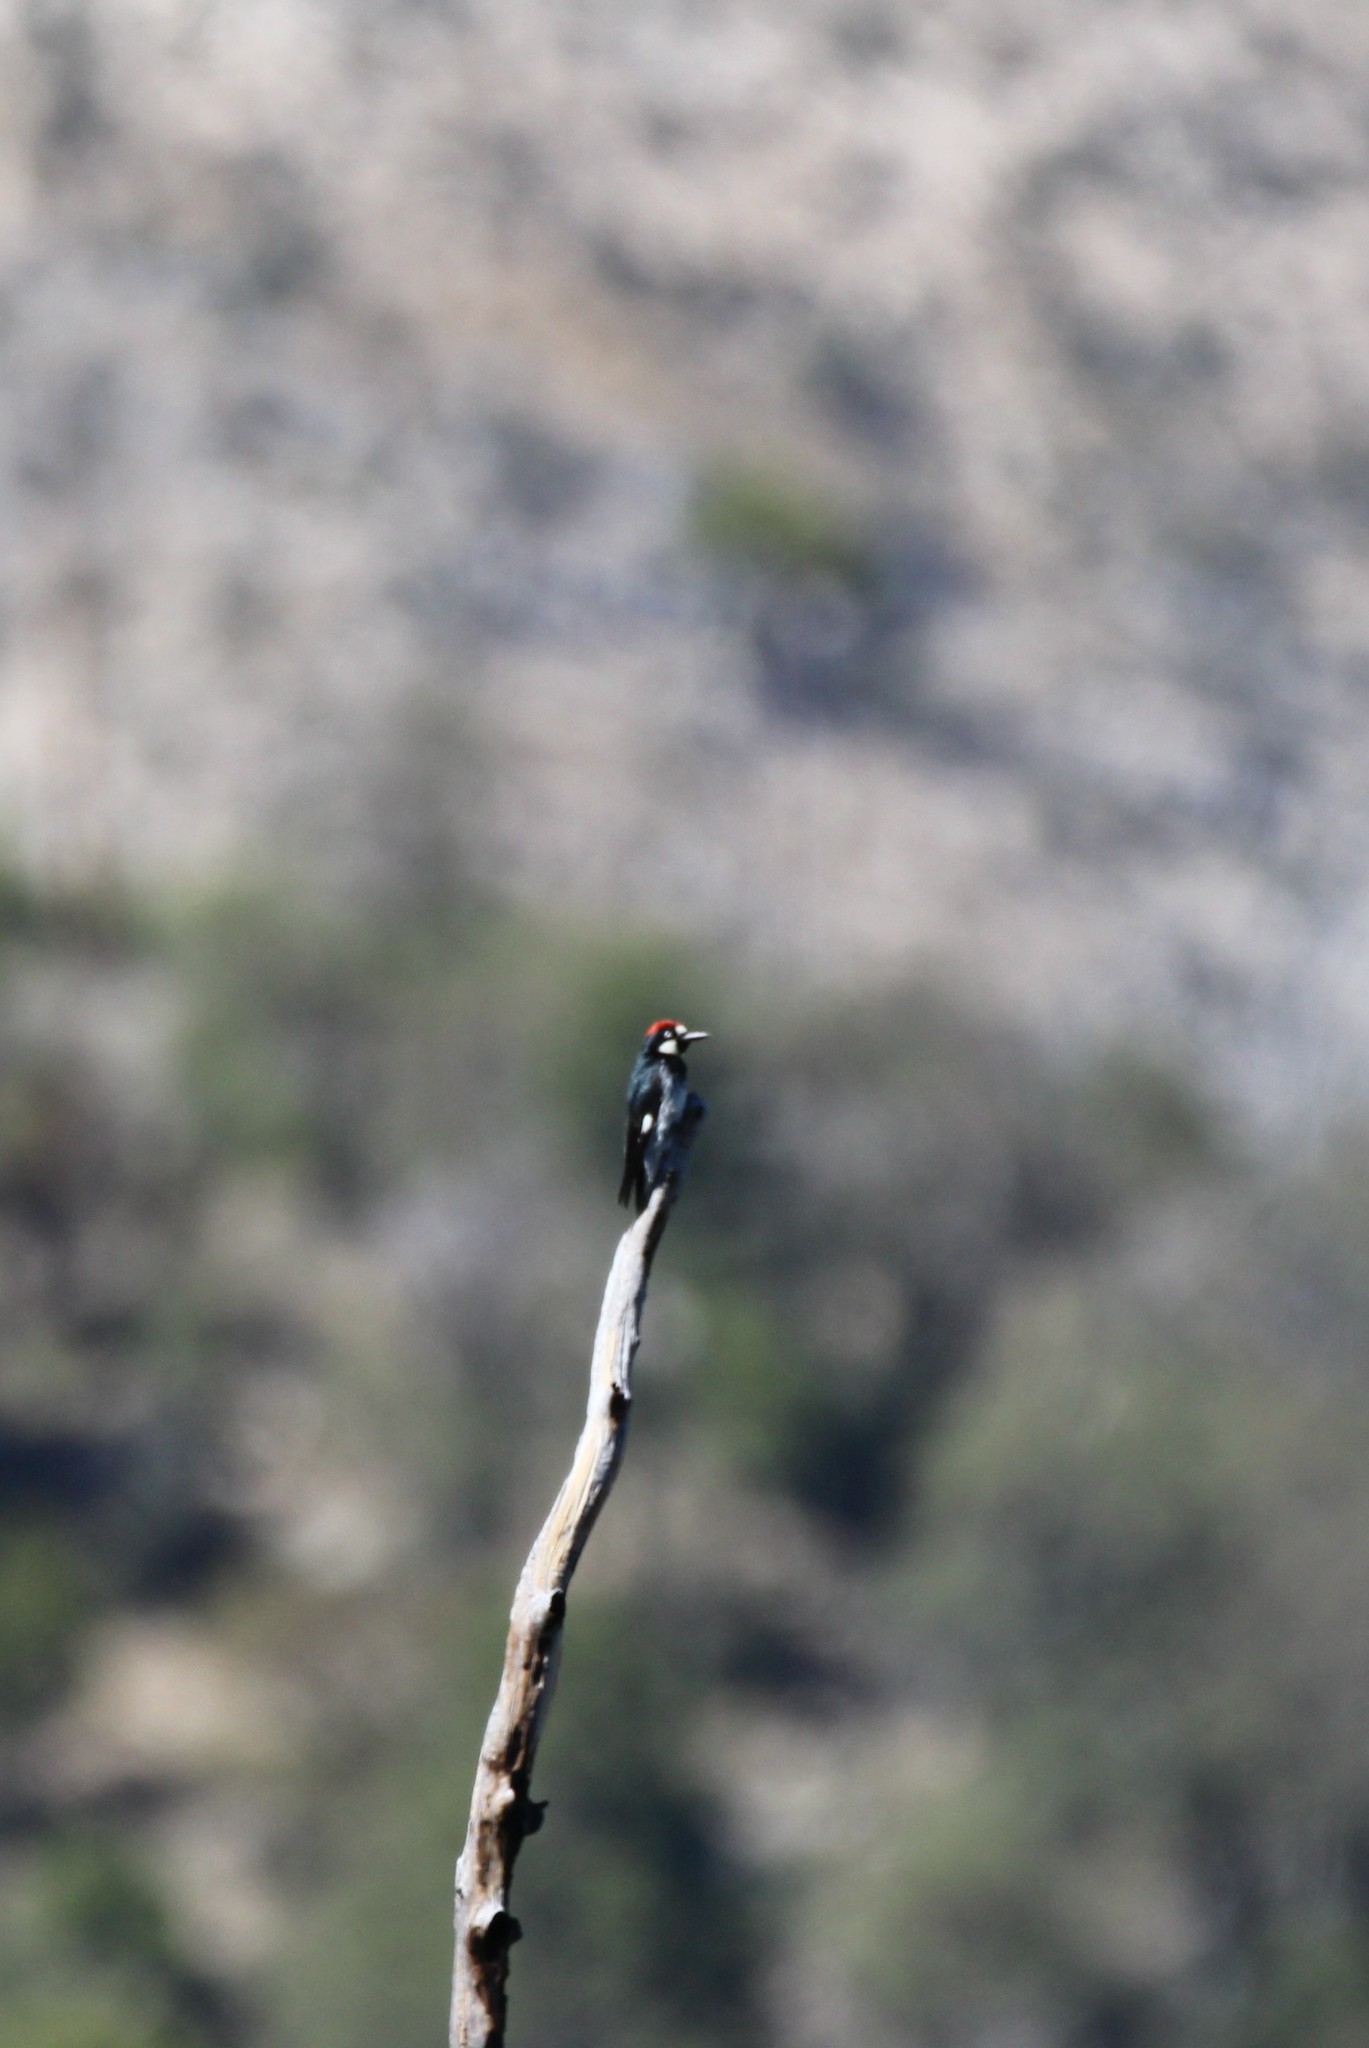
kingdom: Animalia
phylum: Chordata
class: Aves
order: Piciformes
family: Picidae
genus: Melanerpes
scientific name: Melanerpes formicivorus
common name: Acorn woodpecker
